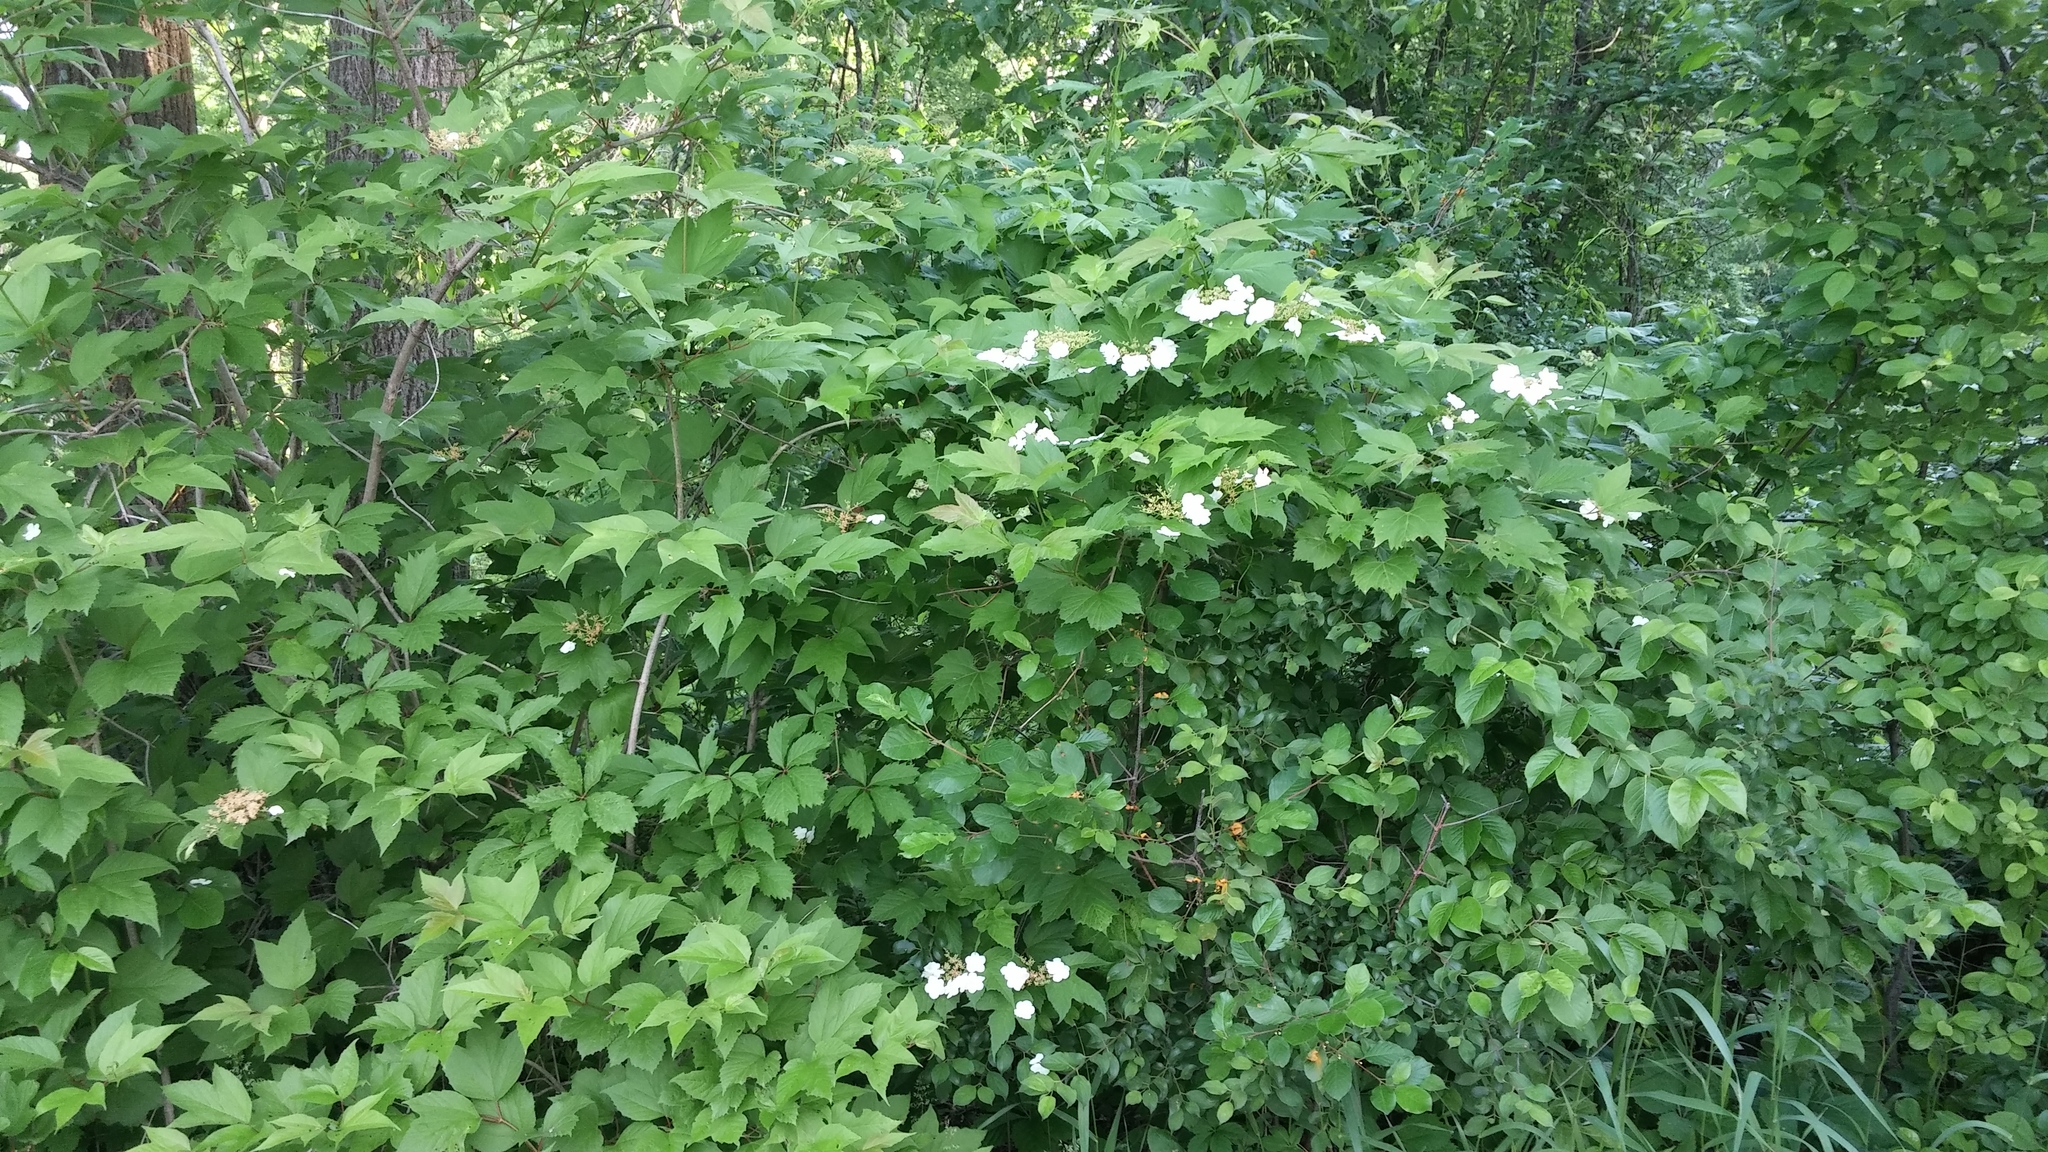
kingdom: Plantae
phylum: Tracheophyta
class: Magnoliopsida
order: Dipsacales
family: Viburnaceae
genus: Viburnum
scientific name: Viburnum opulus
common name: Guelder-rose
